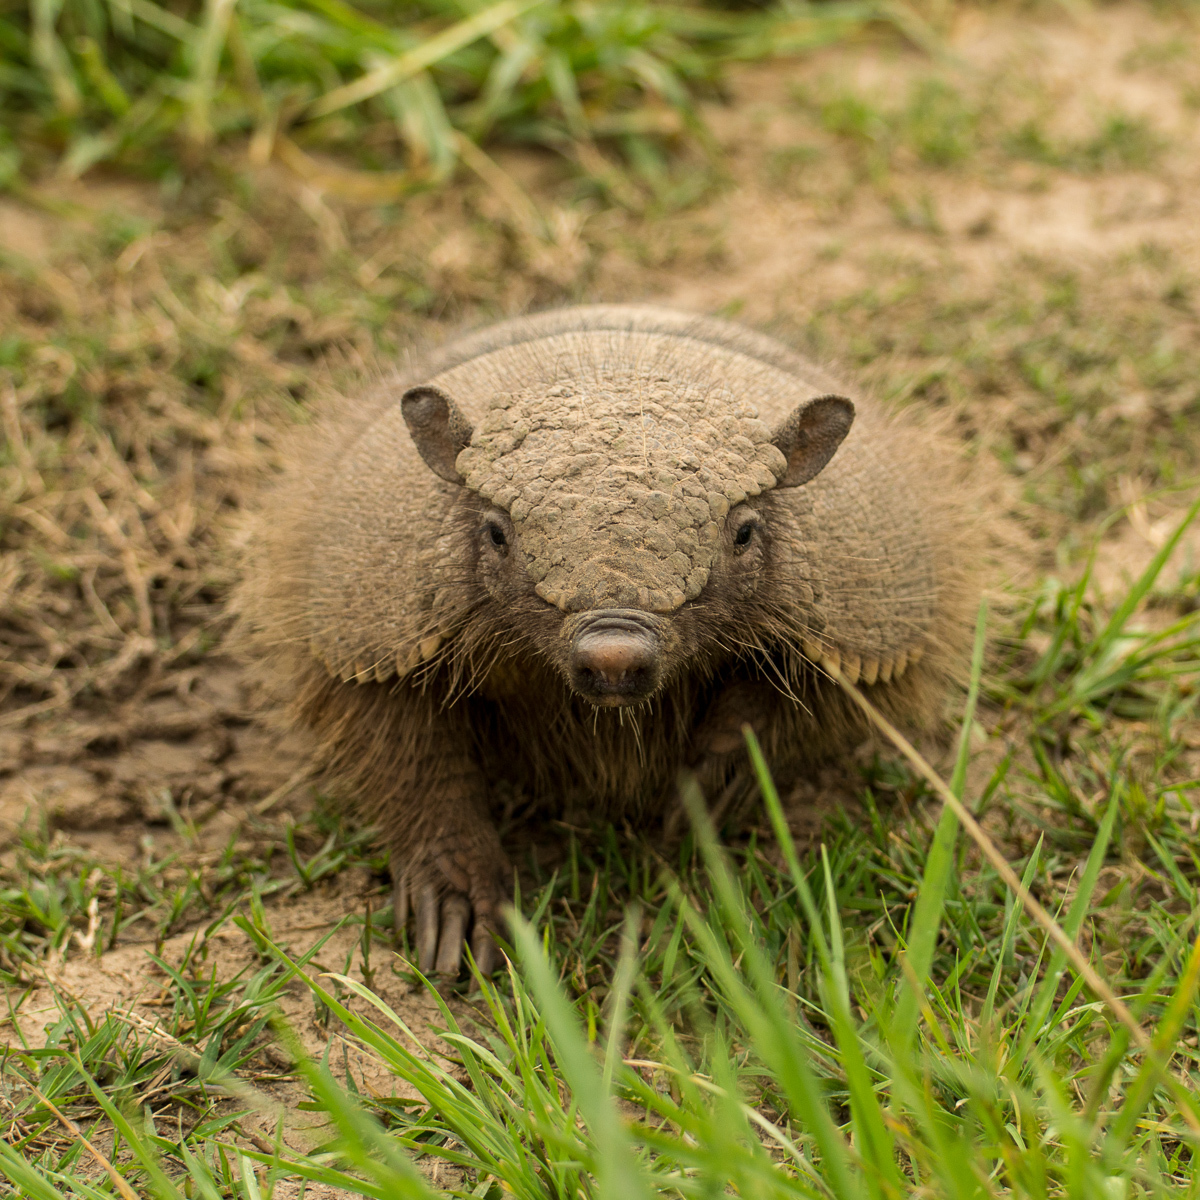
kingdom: Animalia
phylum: Chordata
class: Mammalia
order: Cingulata
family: Dasypodidae
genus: Chaetophractus
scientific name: Chaetophractus villosus
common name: Big hairy armadillo
